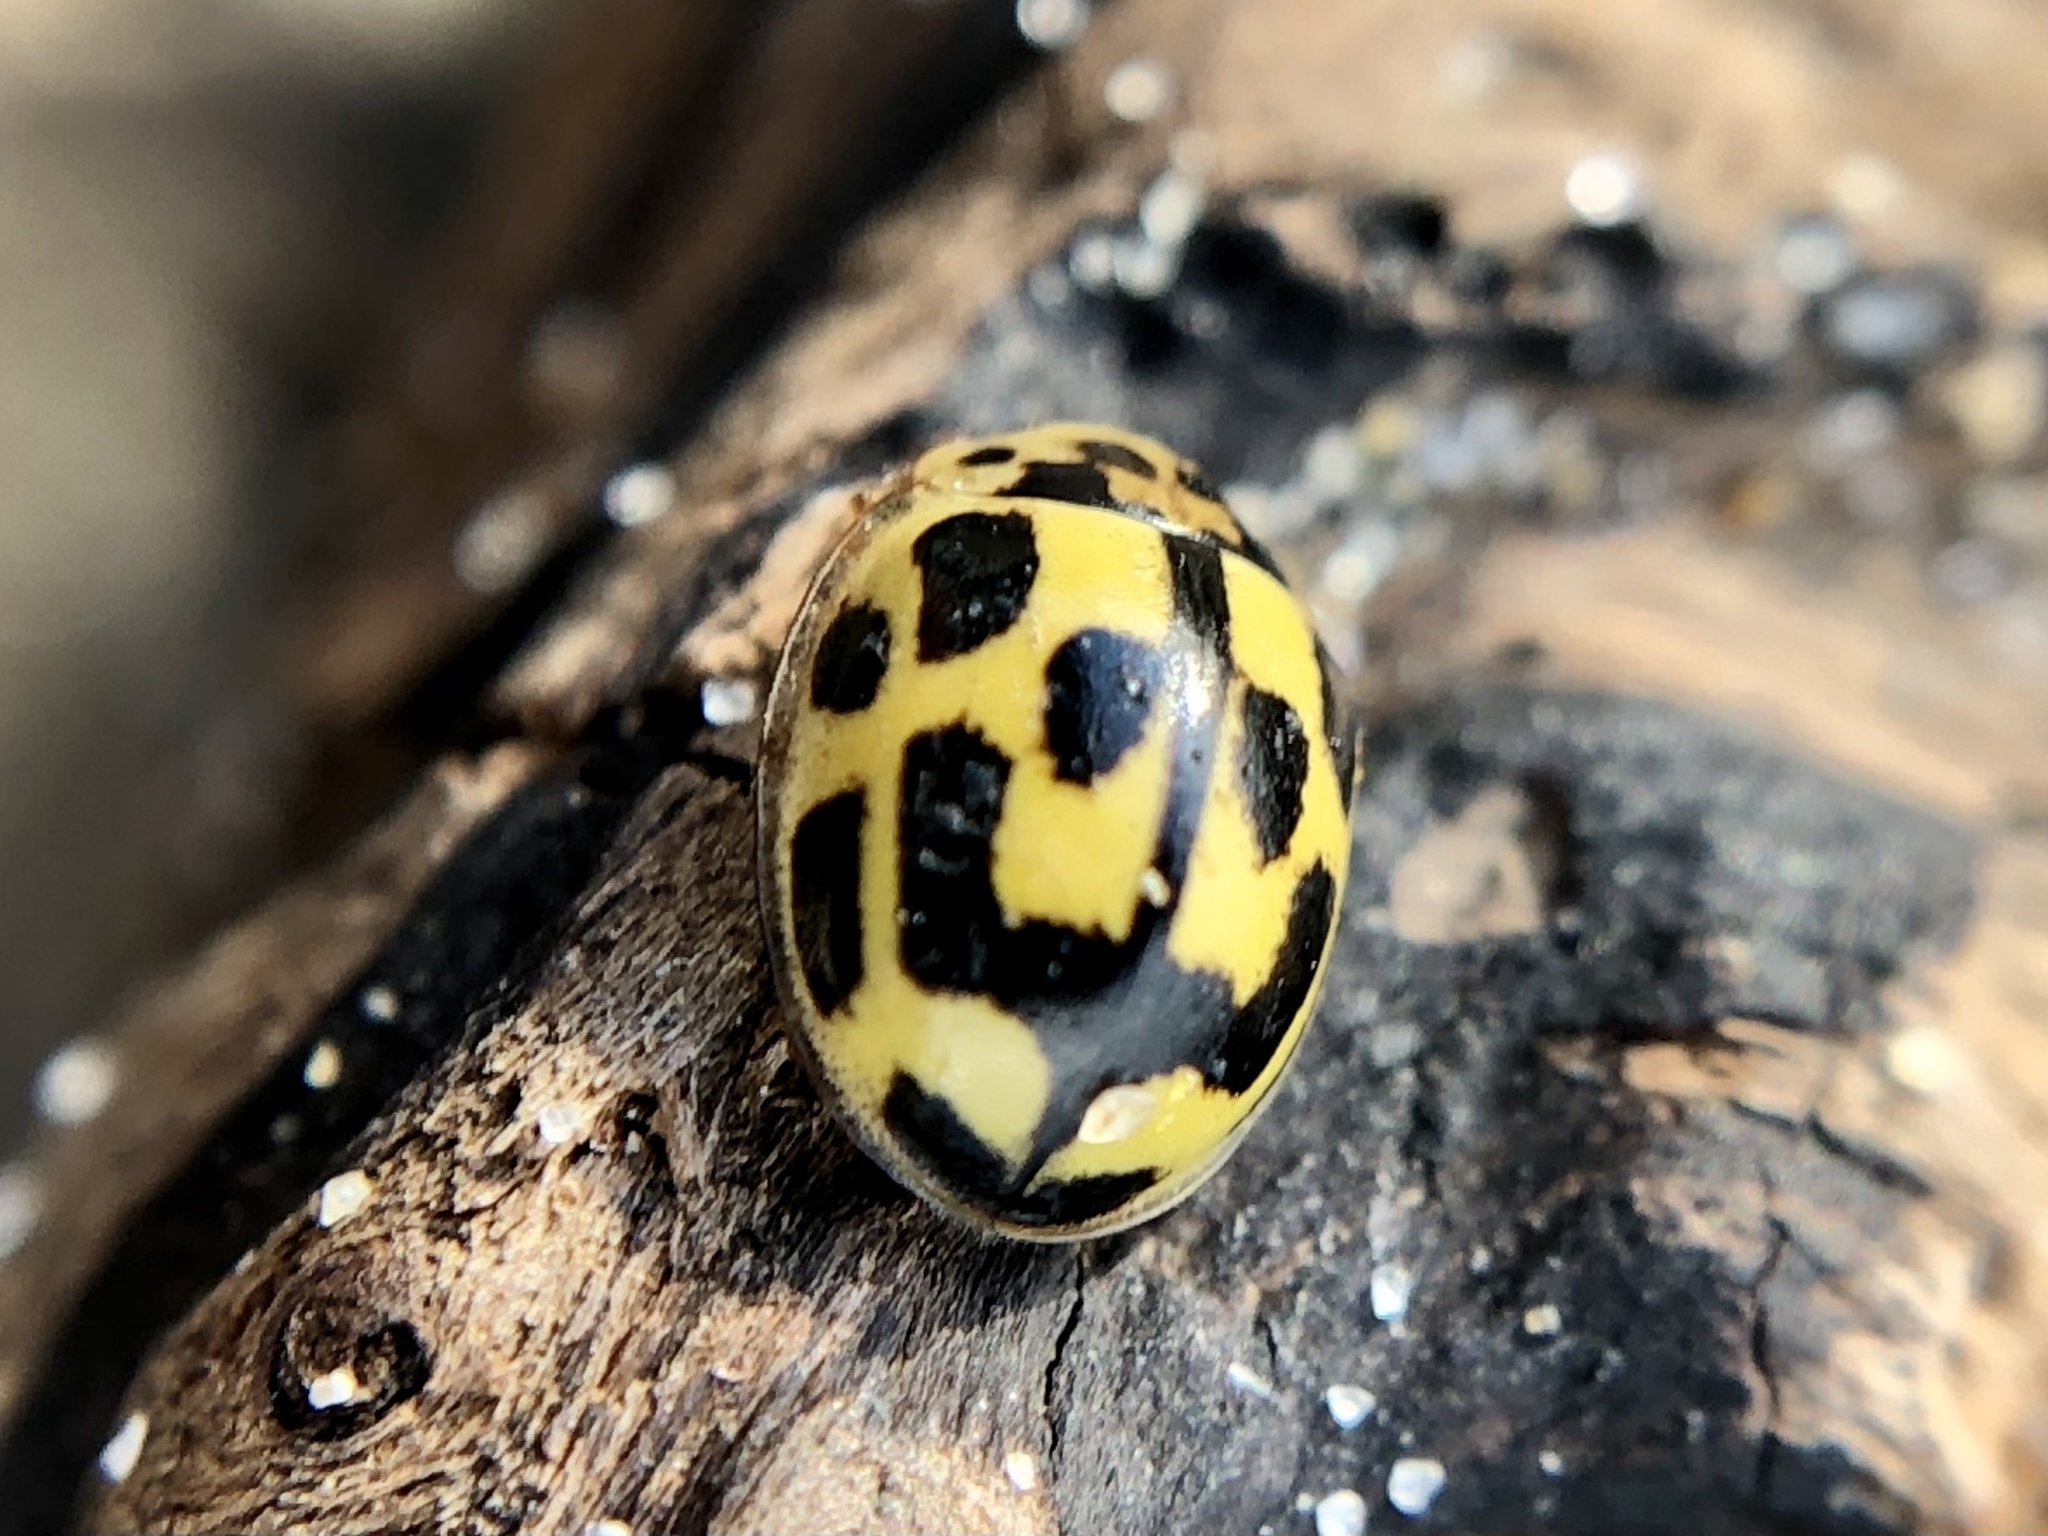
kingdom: Animalia
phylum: Arthropoda
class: Insecta
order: Coleoptera
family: Coccinellidae
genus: Propylaea
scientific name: Propylaea quatuordecimpunctata
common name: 14-spotted ladybird beetle
